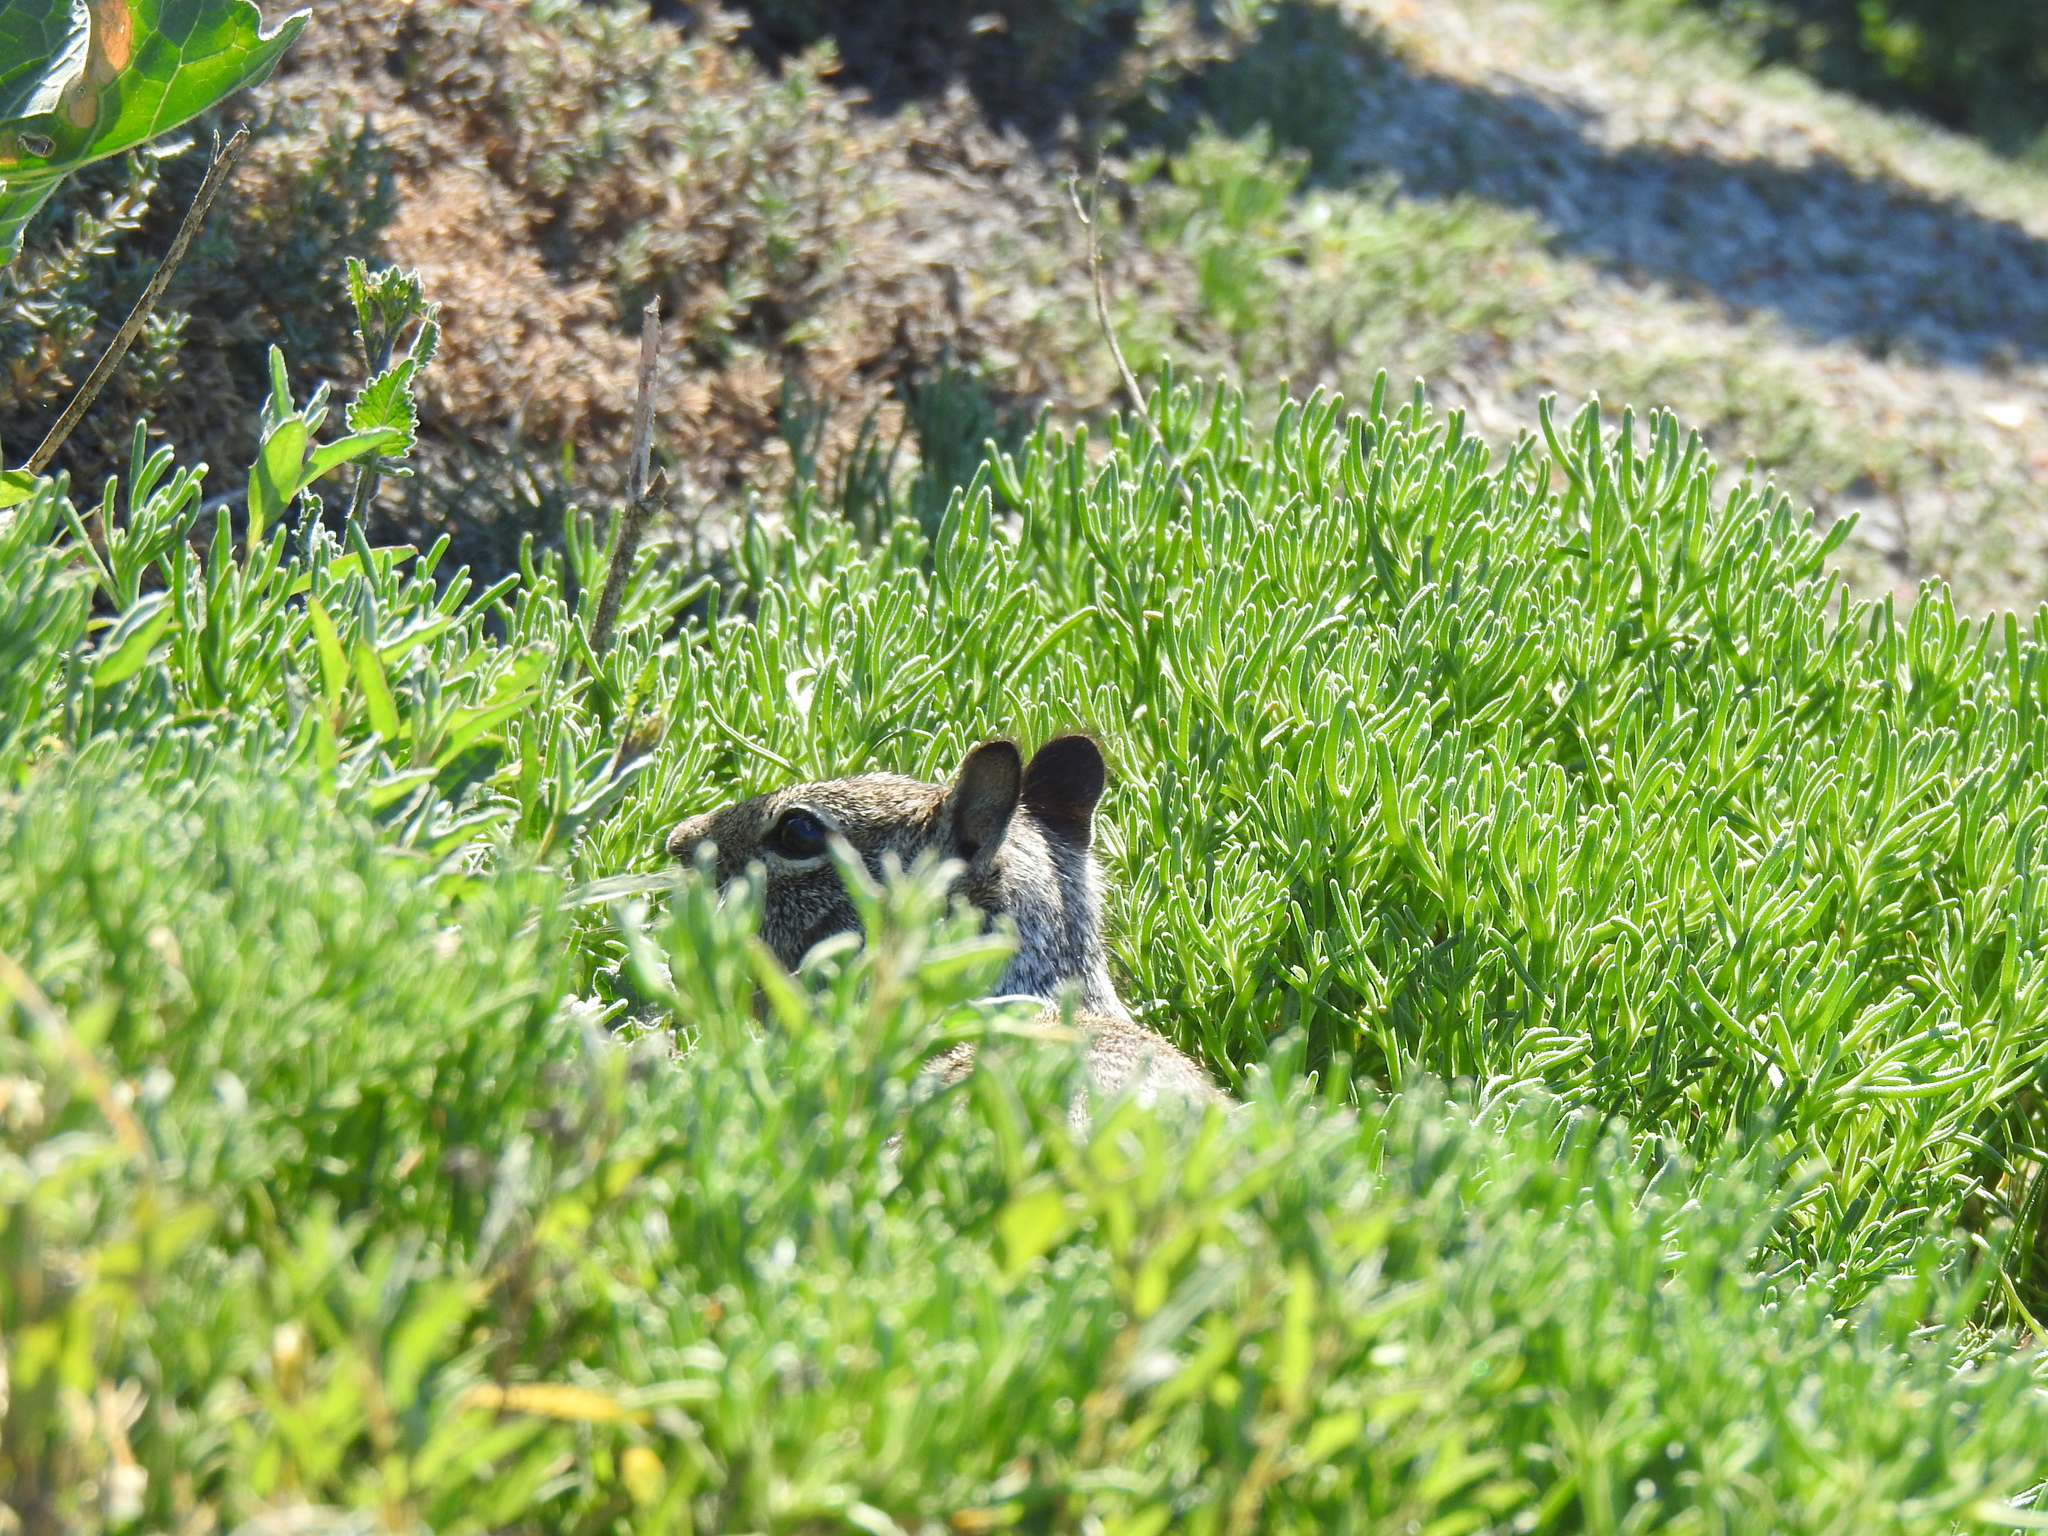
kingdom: Animalia
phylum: Chordata
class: Mammalia
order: Rodentia
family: Sciuridae
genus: Otospermophilus
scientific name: Otospermophilus beecheyi
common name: California ground squirrel
